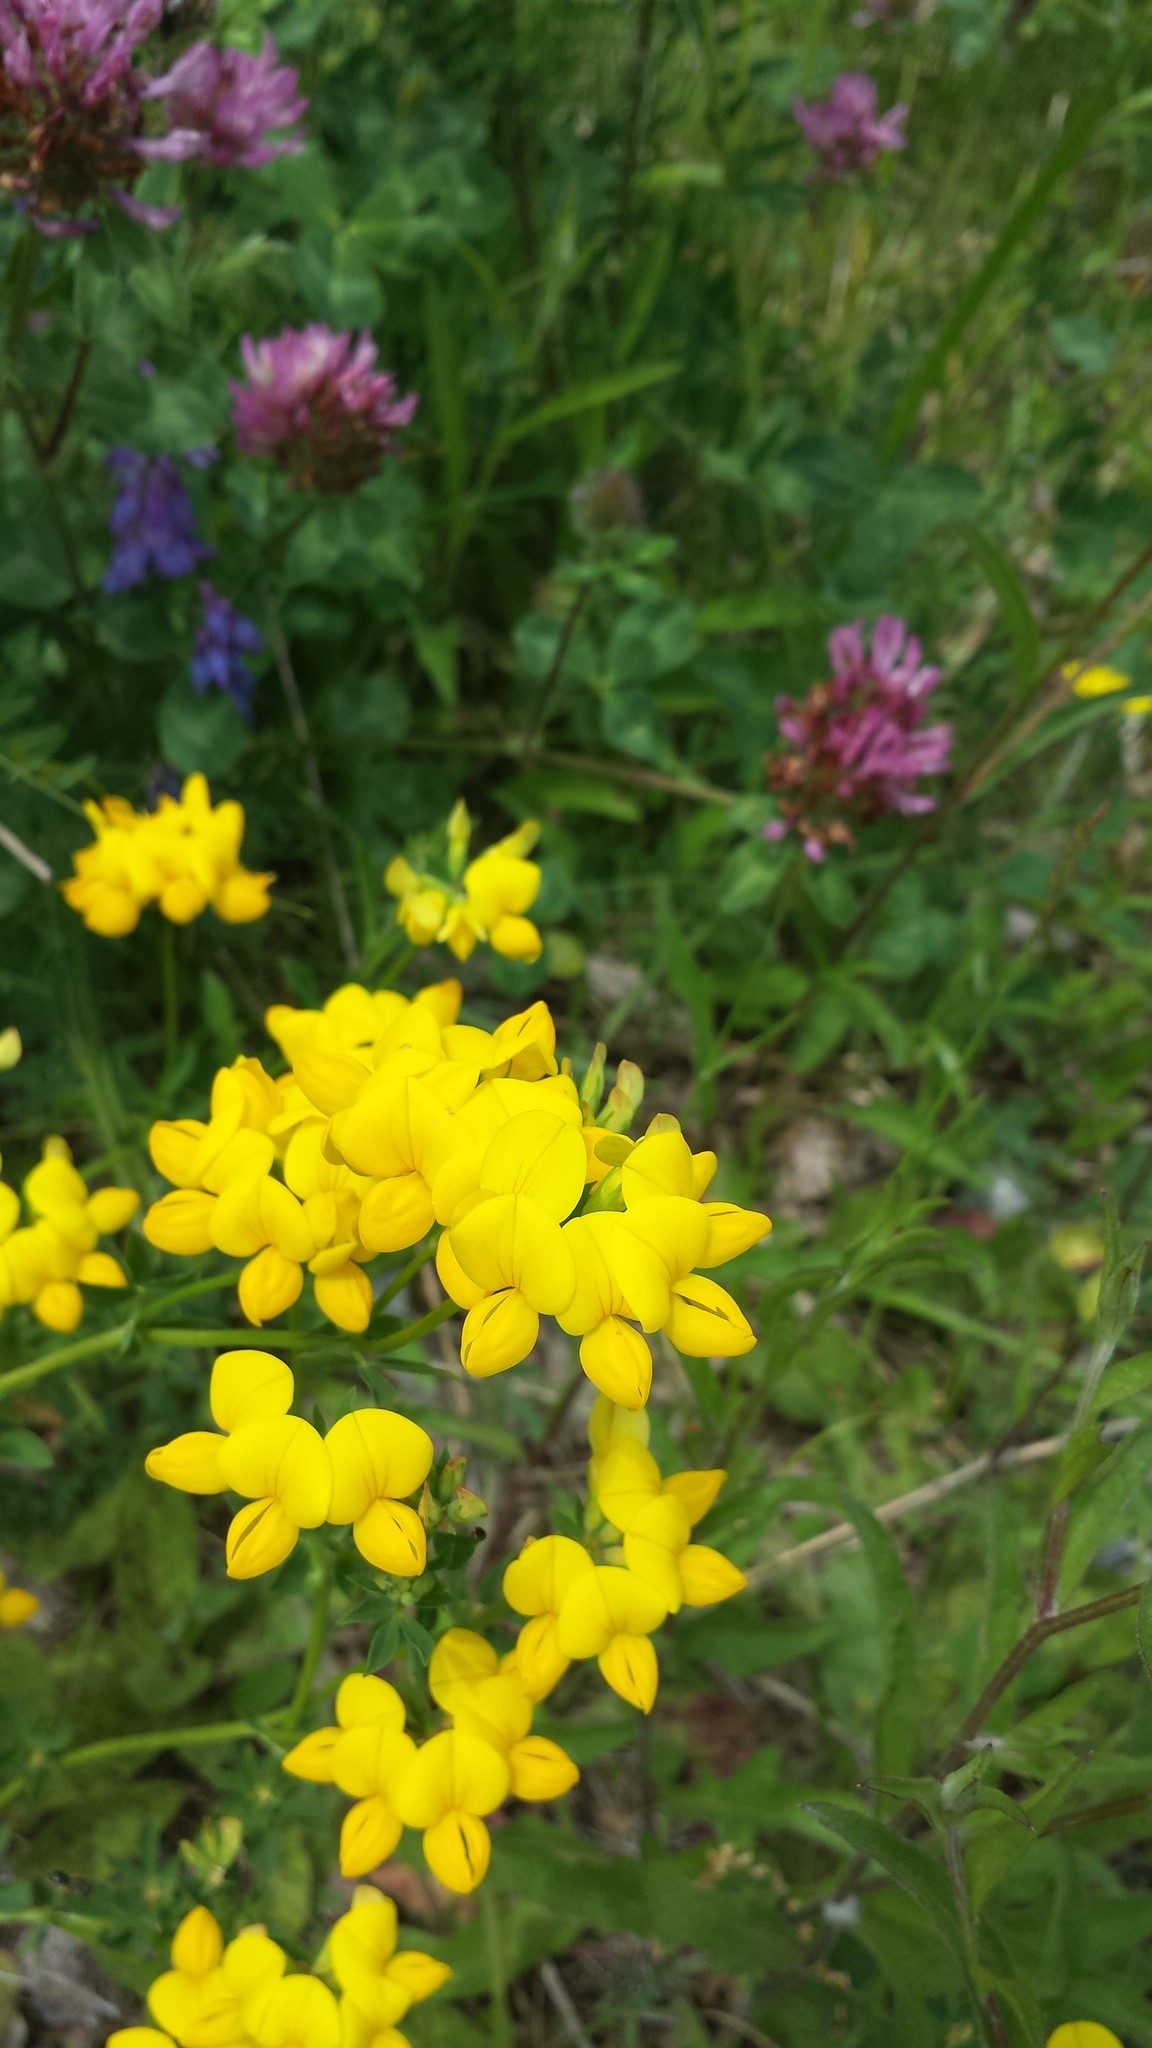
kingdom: Plantae
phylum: Tracheophyta
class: Magnoliopsida
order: Fabales
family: Fabaceae
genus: Lotus
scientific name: Lotus corniculatus
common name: Common bird's-foot-trefoil
